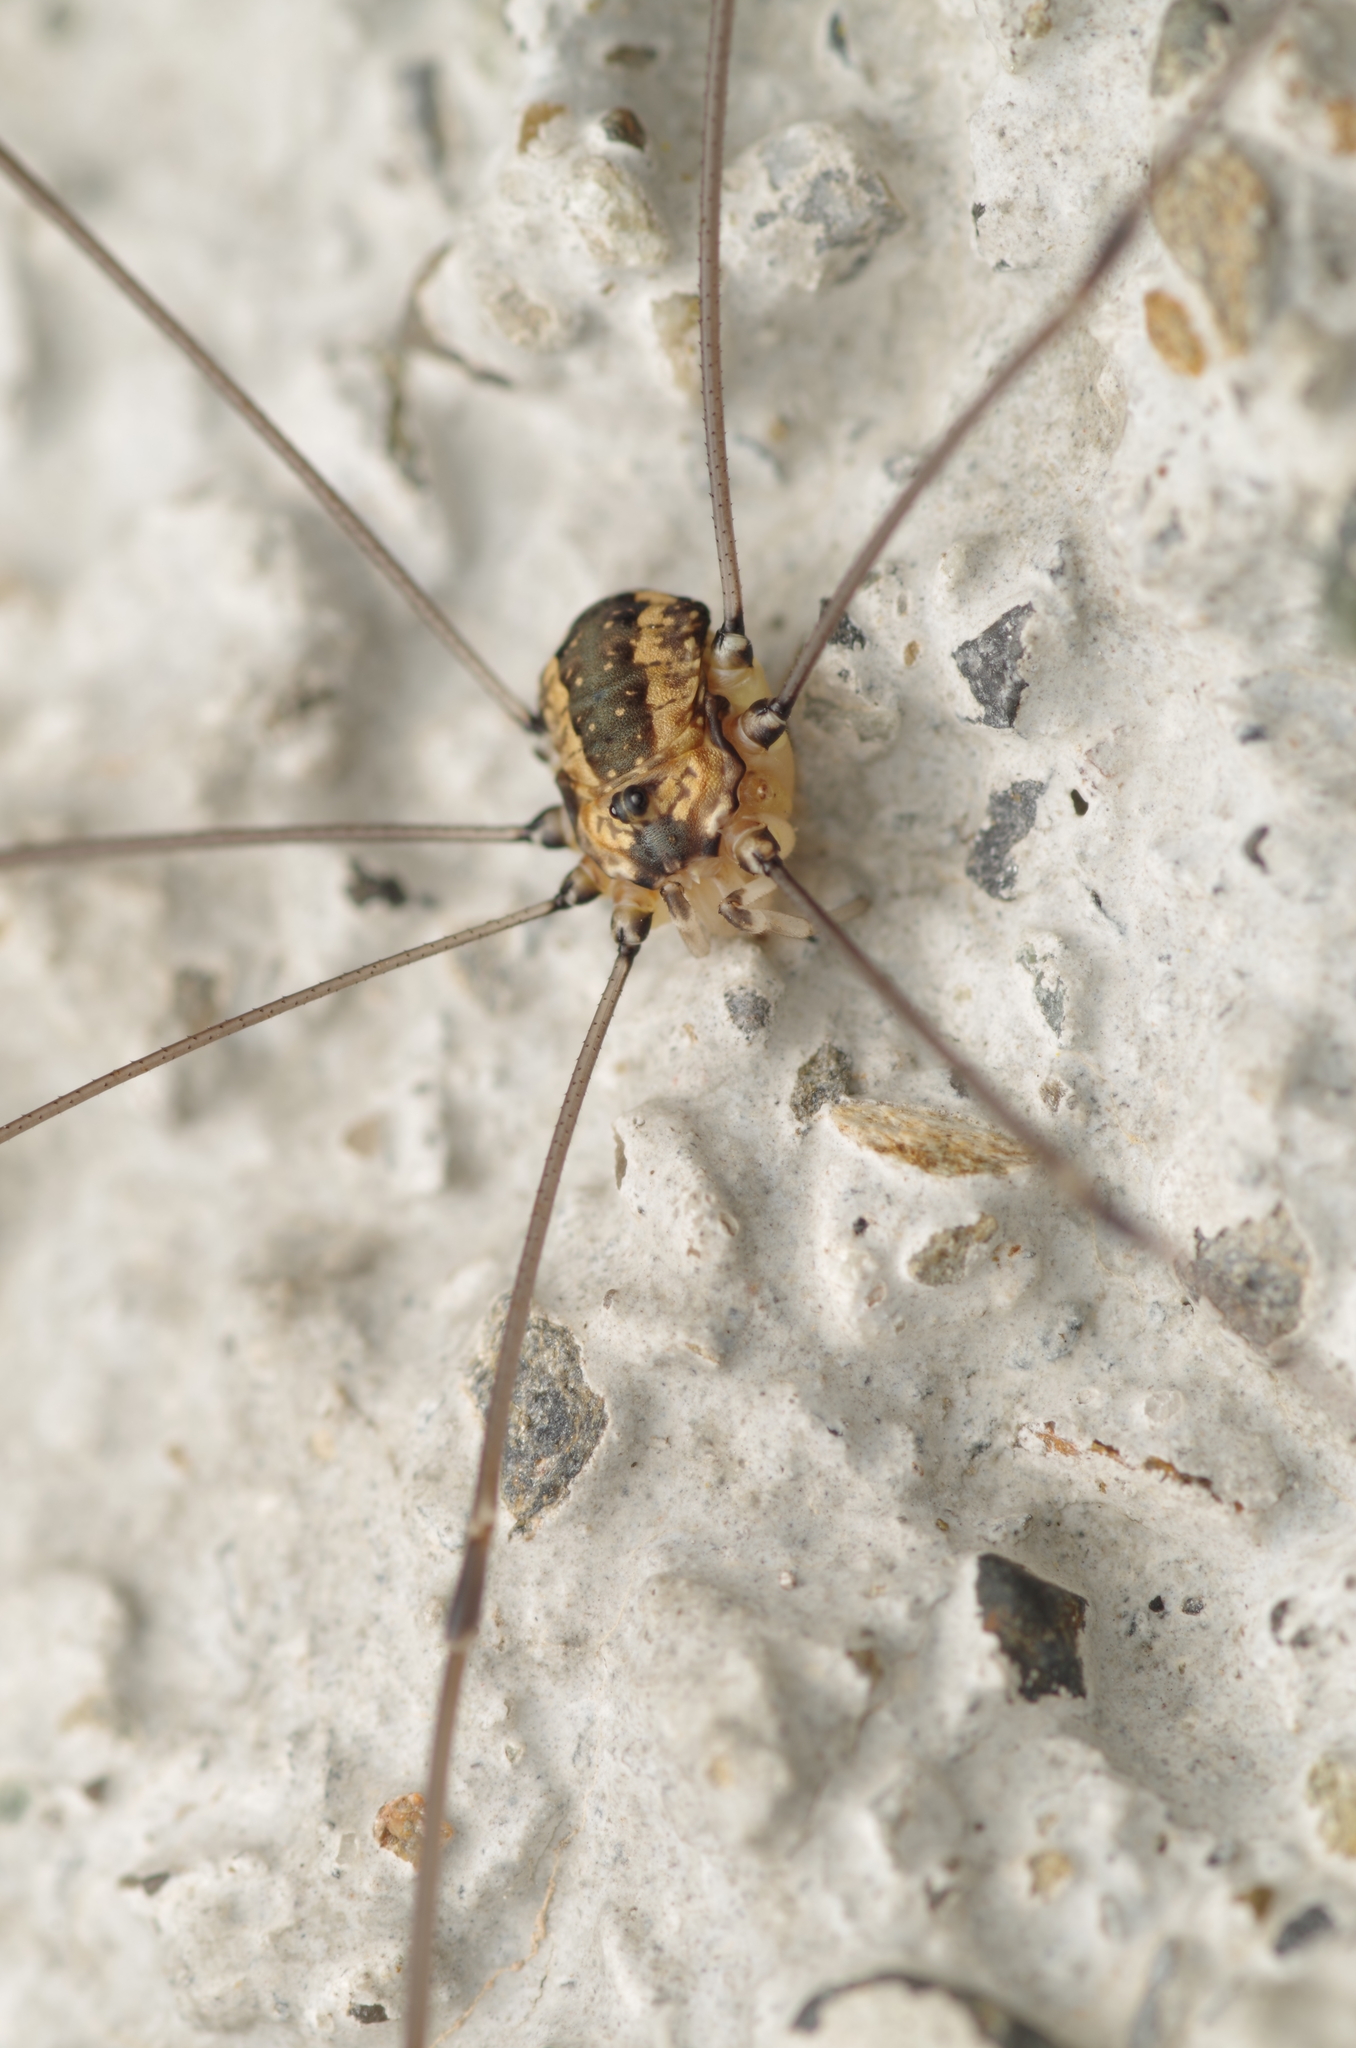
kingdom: Animalia
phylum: Arthropoda
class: Arachnida
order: Opiliones
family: Sclerosomatidae
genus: Leiobunum
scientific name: Leiobunum rotundum
